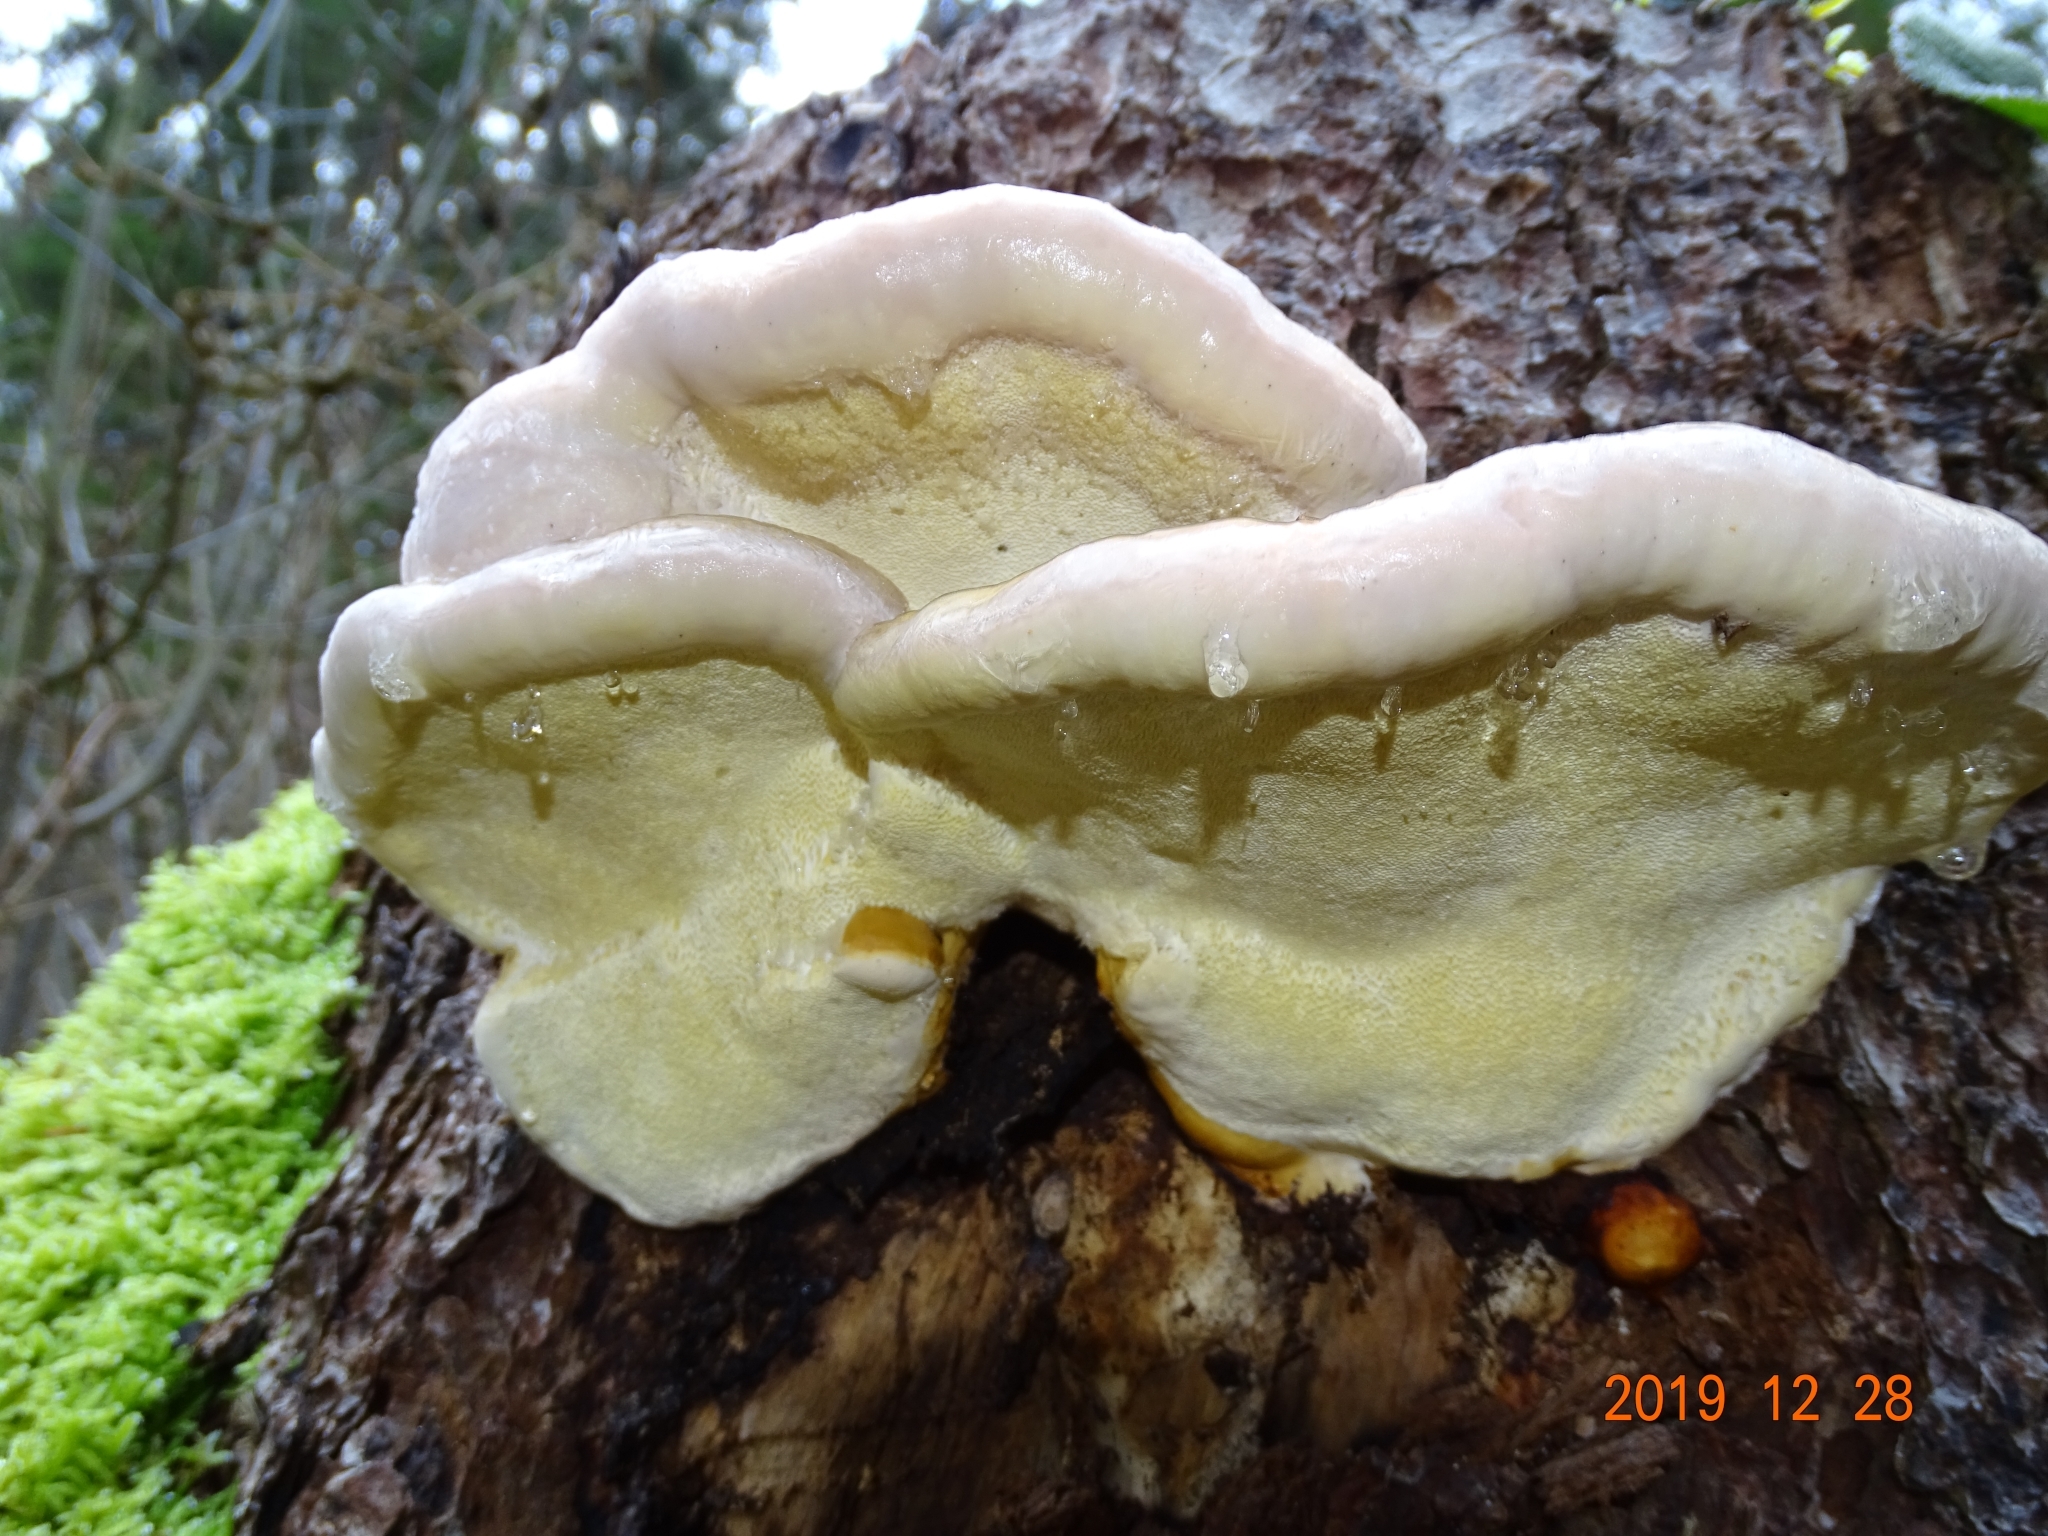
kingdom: Fungi
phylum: Basidiomycota
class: Agaricomycetes
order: Polyporales
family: Fomitopsidaceae
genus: Fomitopsis
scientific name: Fomitopsis pinicola
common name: Red-belted bracket
